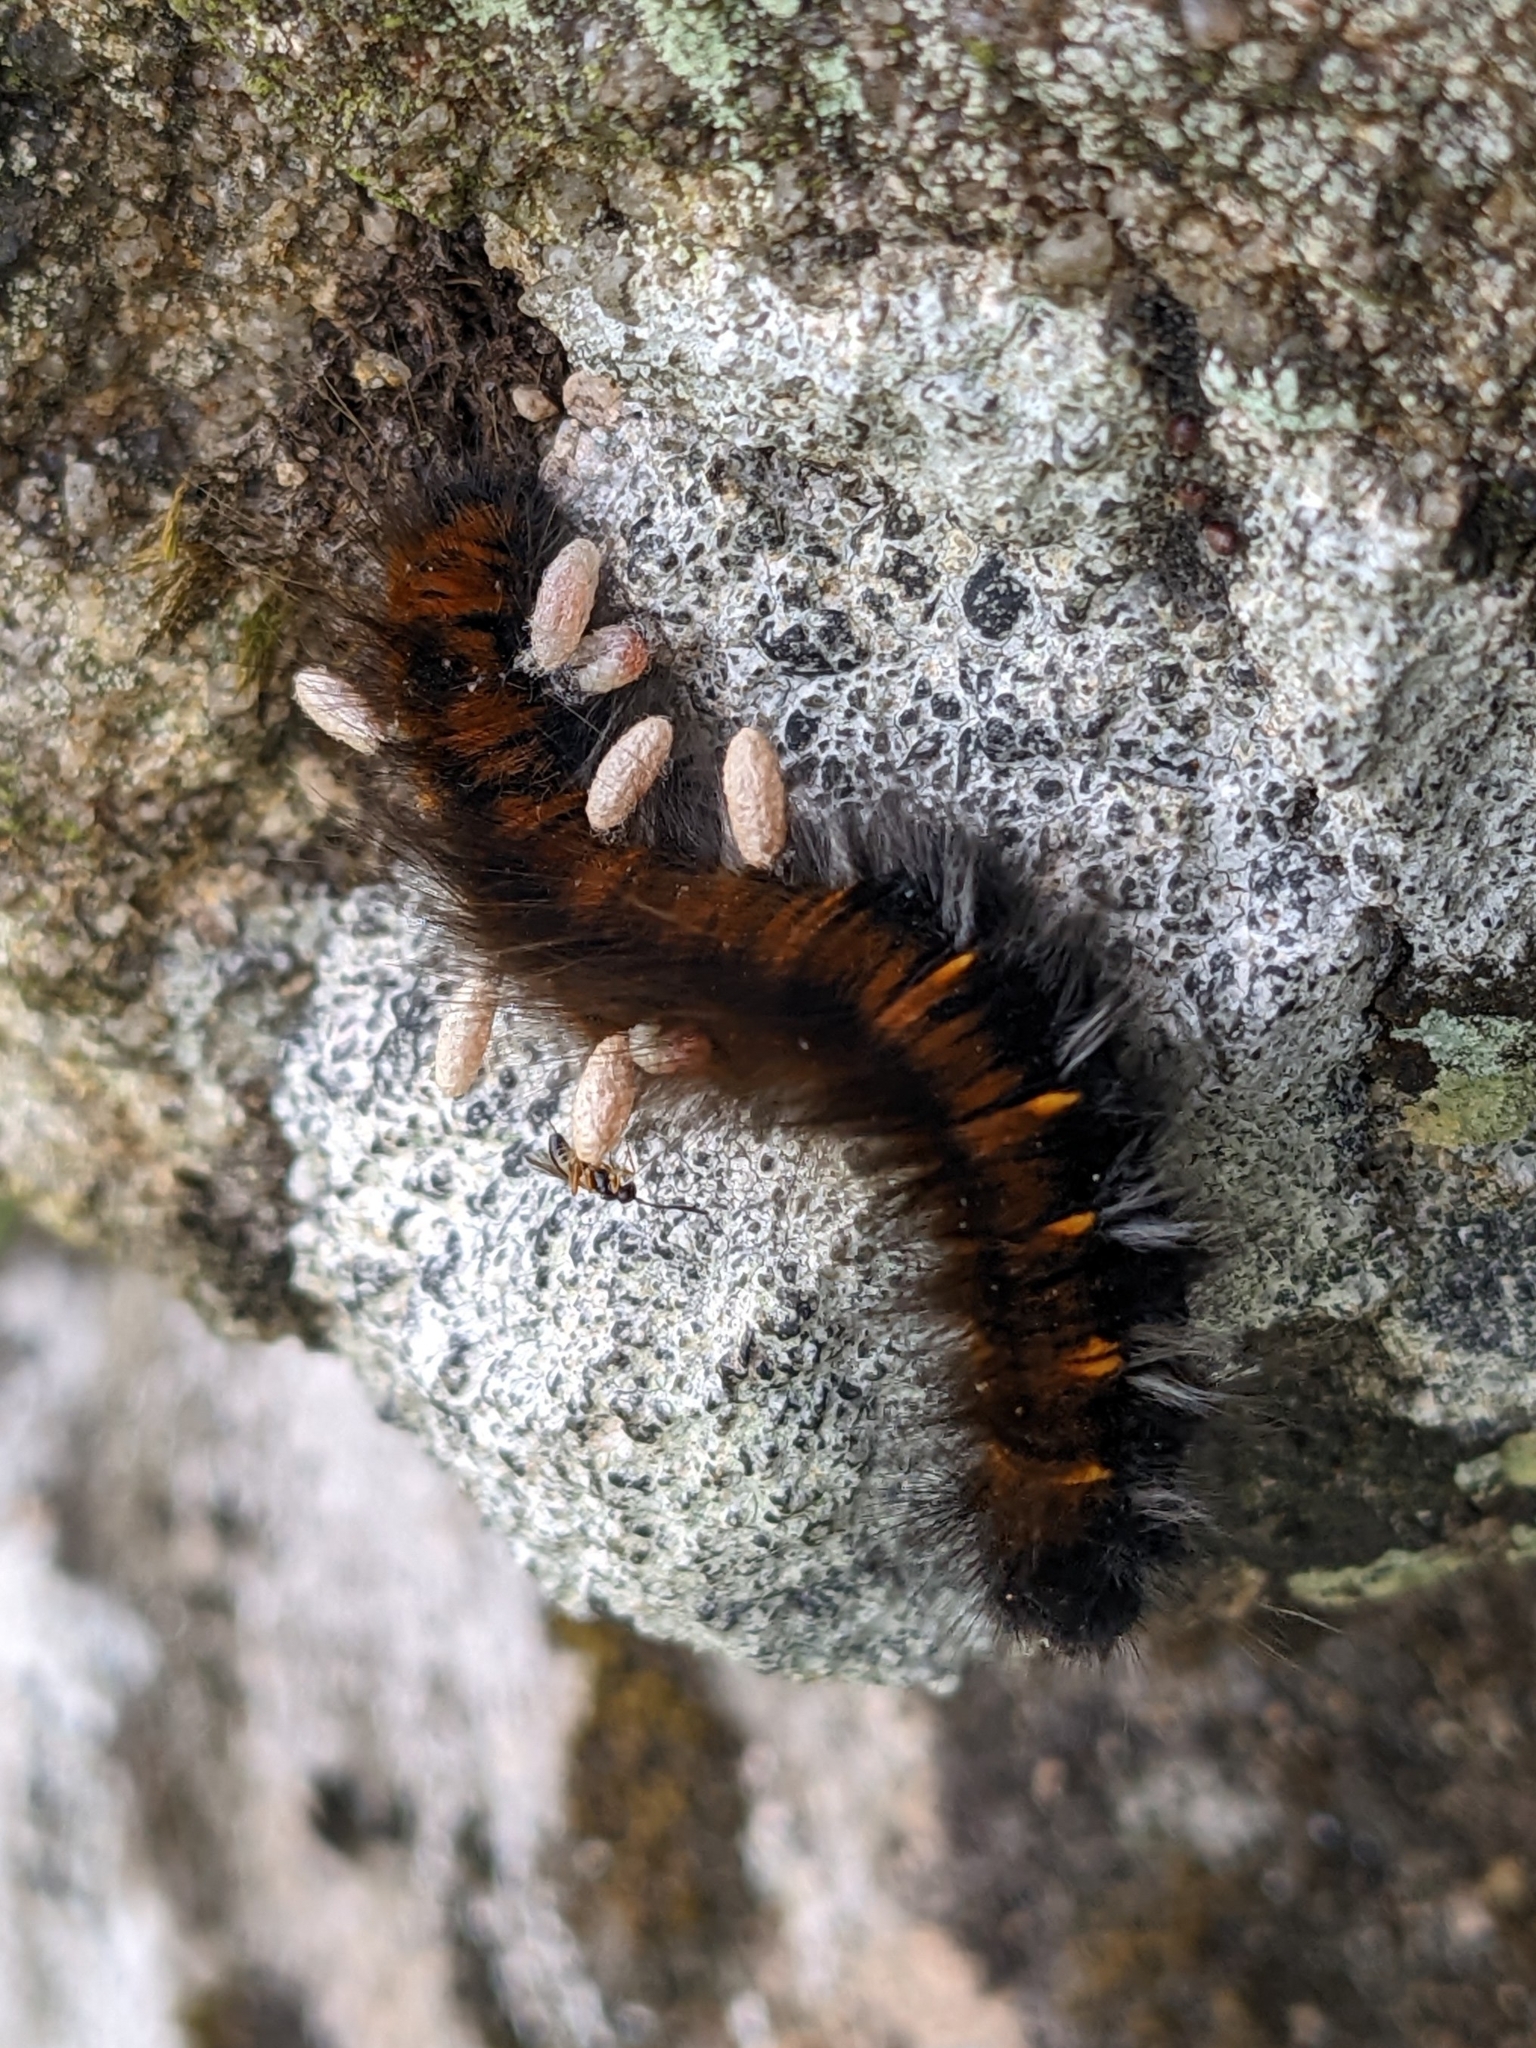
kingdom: Animalia
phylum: Arthropoda
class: Insecta
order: Lepidoptera
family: Lasiocampidae
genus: Macrothylacia
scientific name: Macrothylacia rubi
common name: Fox moth
